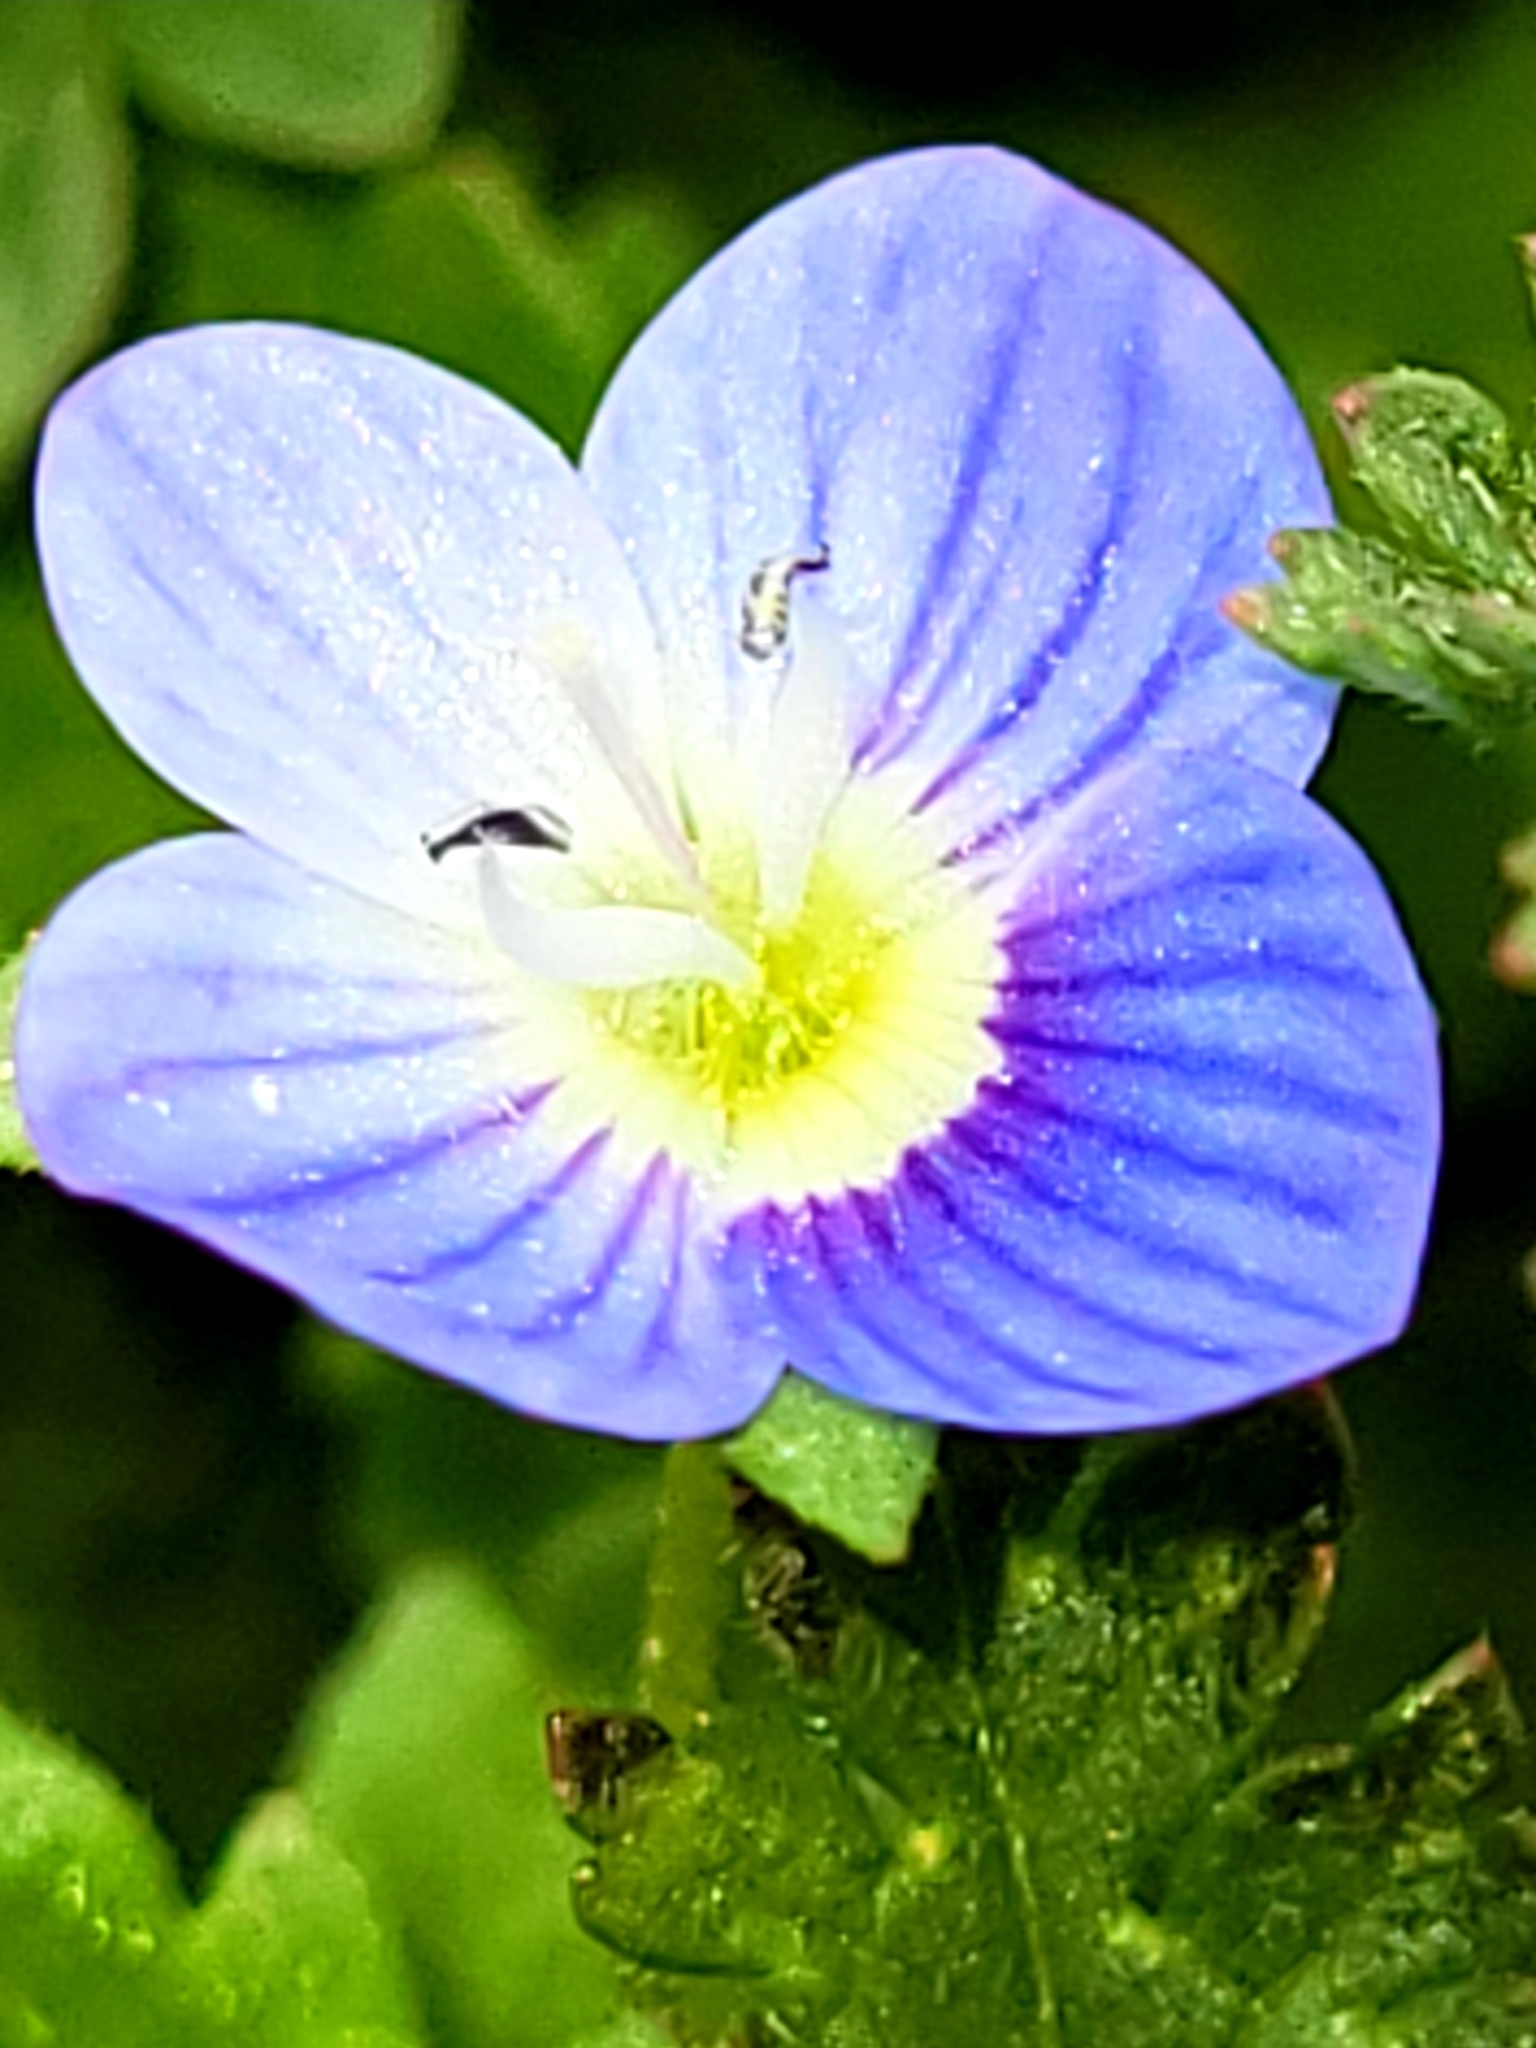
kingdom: Plantae
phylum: Tracheophyta
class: Magnoliopsida
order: Lamiales
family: Plantaginaceae
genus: Veronica
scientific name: Veronica persica
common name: Common field-speedwell
